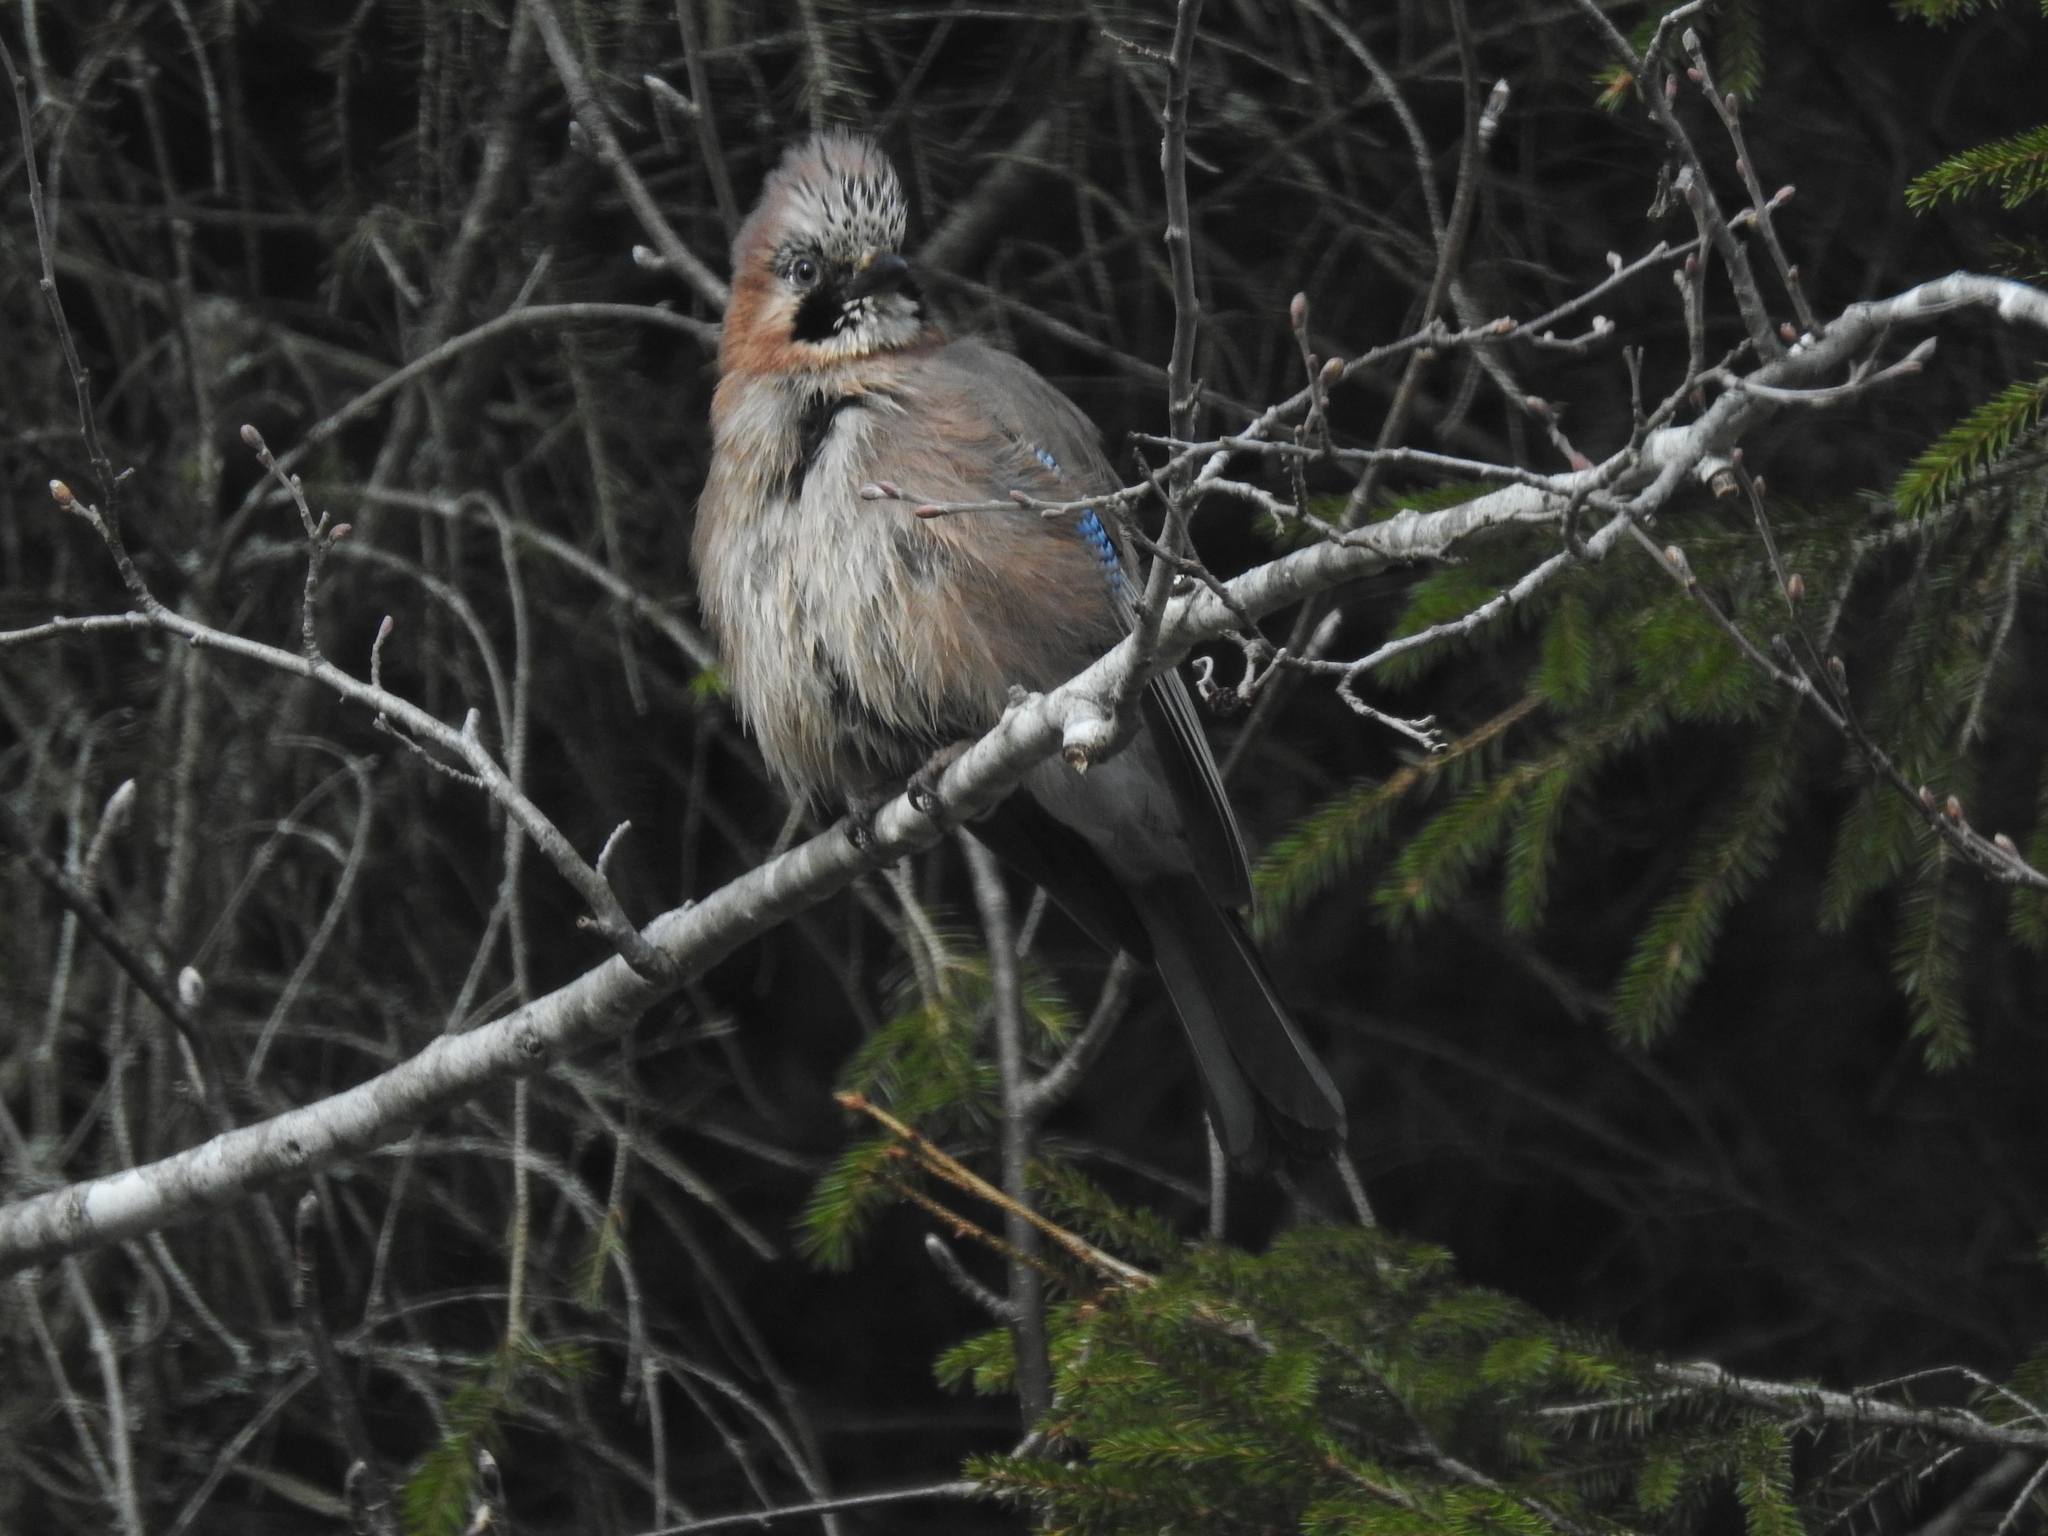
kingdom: Animalia
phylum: Chordata
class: Aves
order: Passeriformes
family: Corvidae
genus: Garrulus
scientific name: Garrulus glandarius
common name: Eurasian jay
